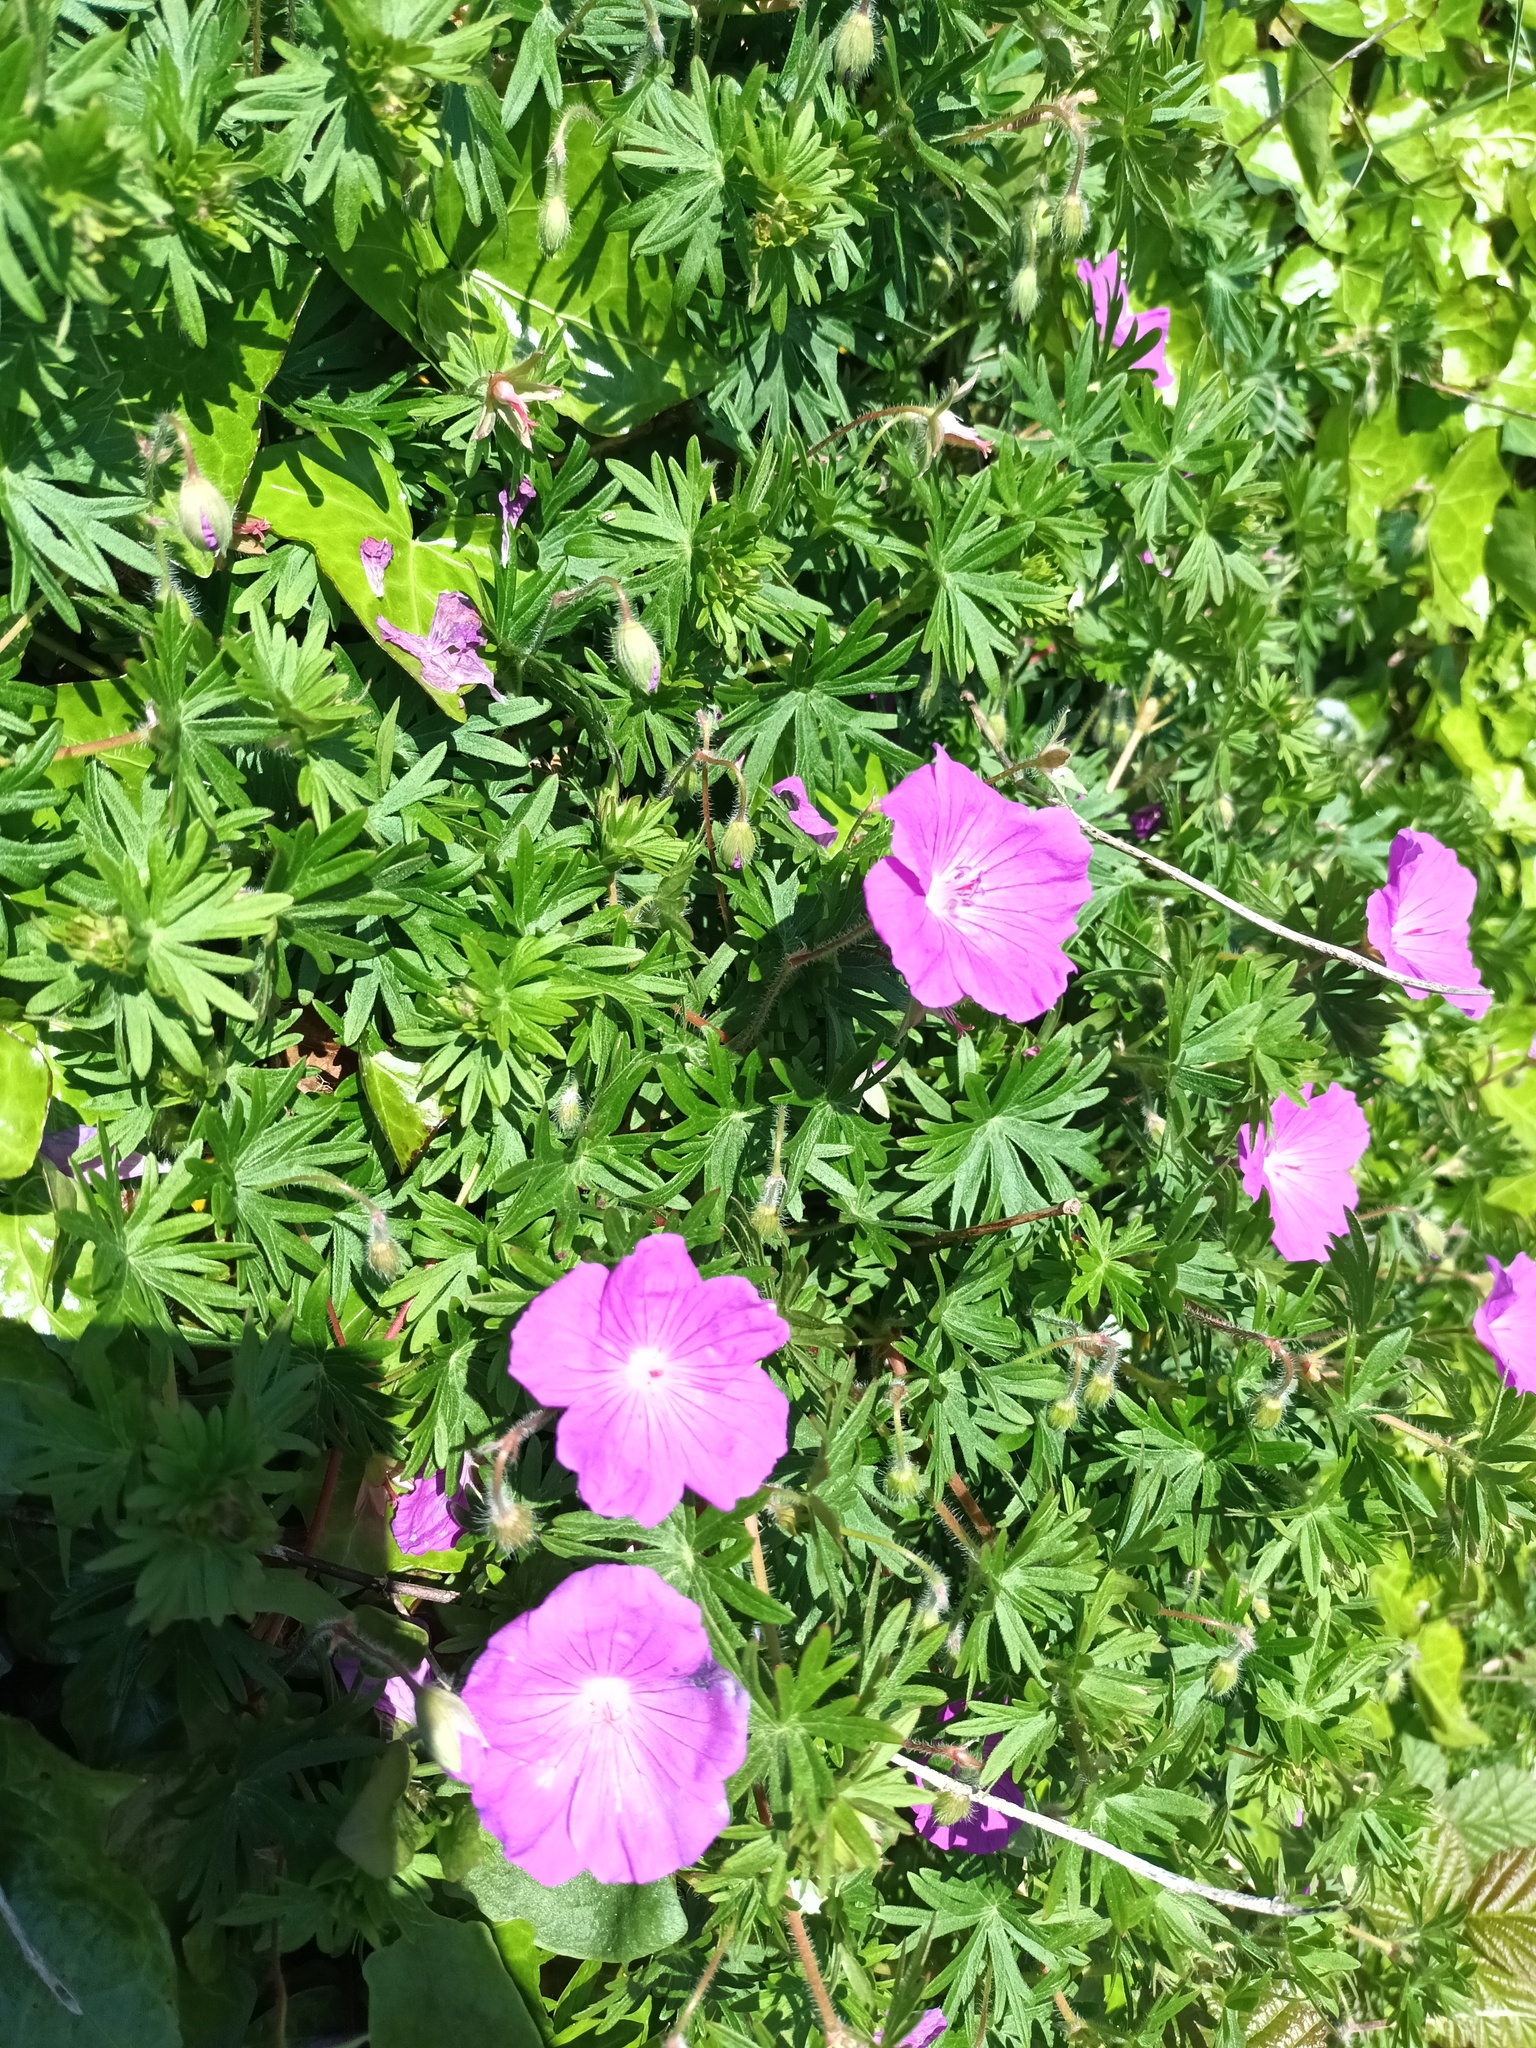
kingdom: Plantae
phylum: Tracheophyta
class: Magnoliopsida
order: Geraniales
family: Geraniaceae
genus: Geranium
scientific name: Geranium sanguineum
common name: Bloody crane's-bill
